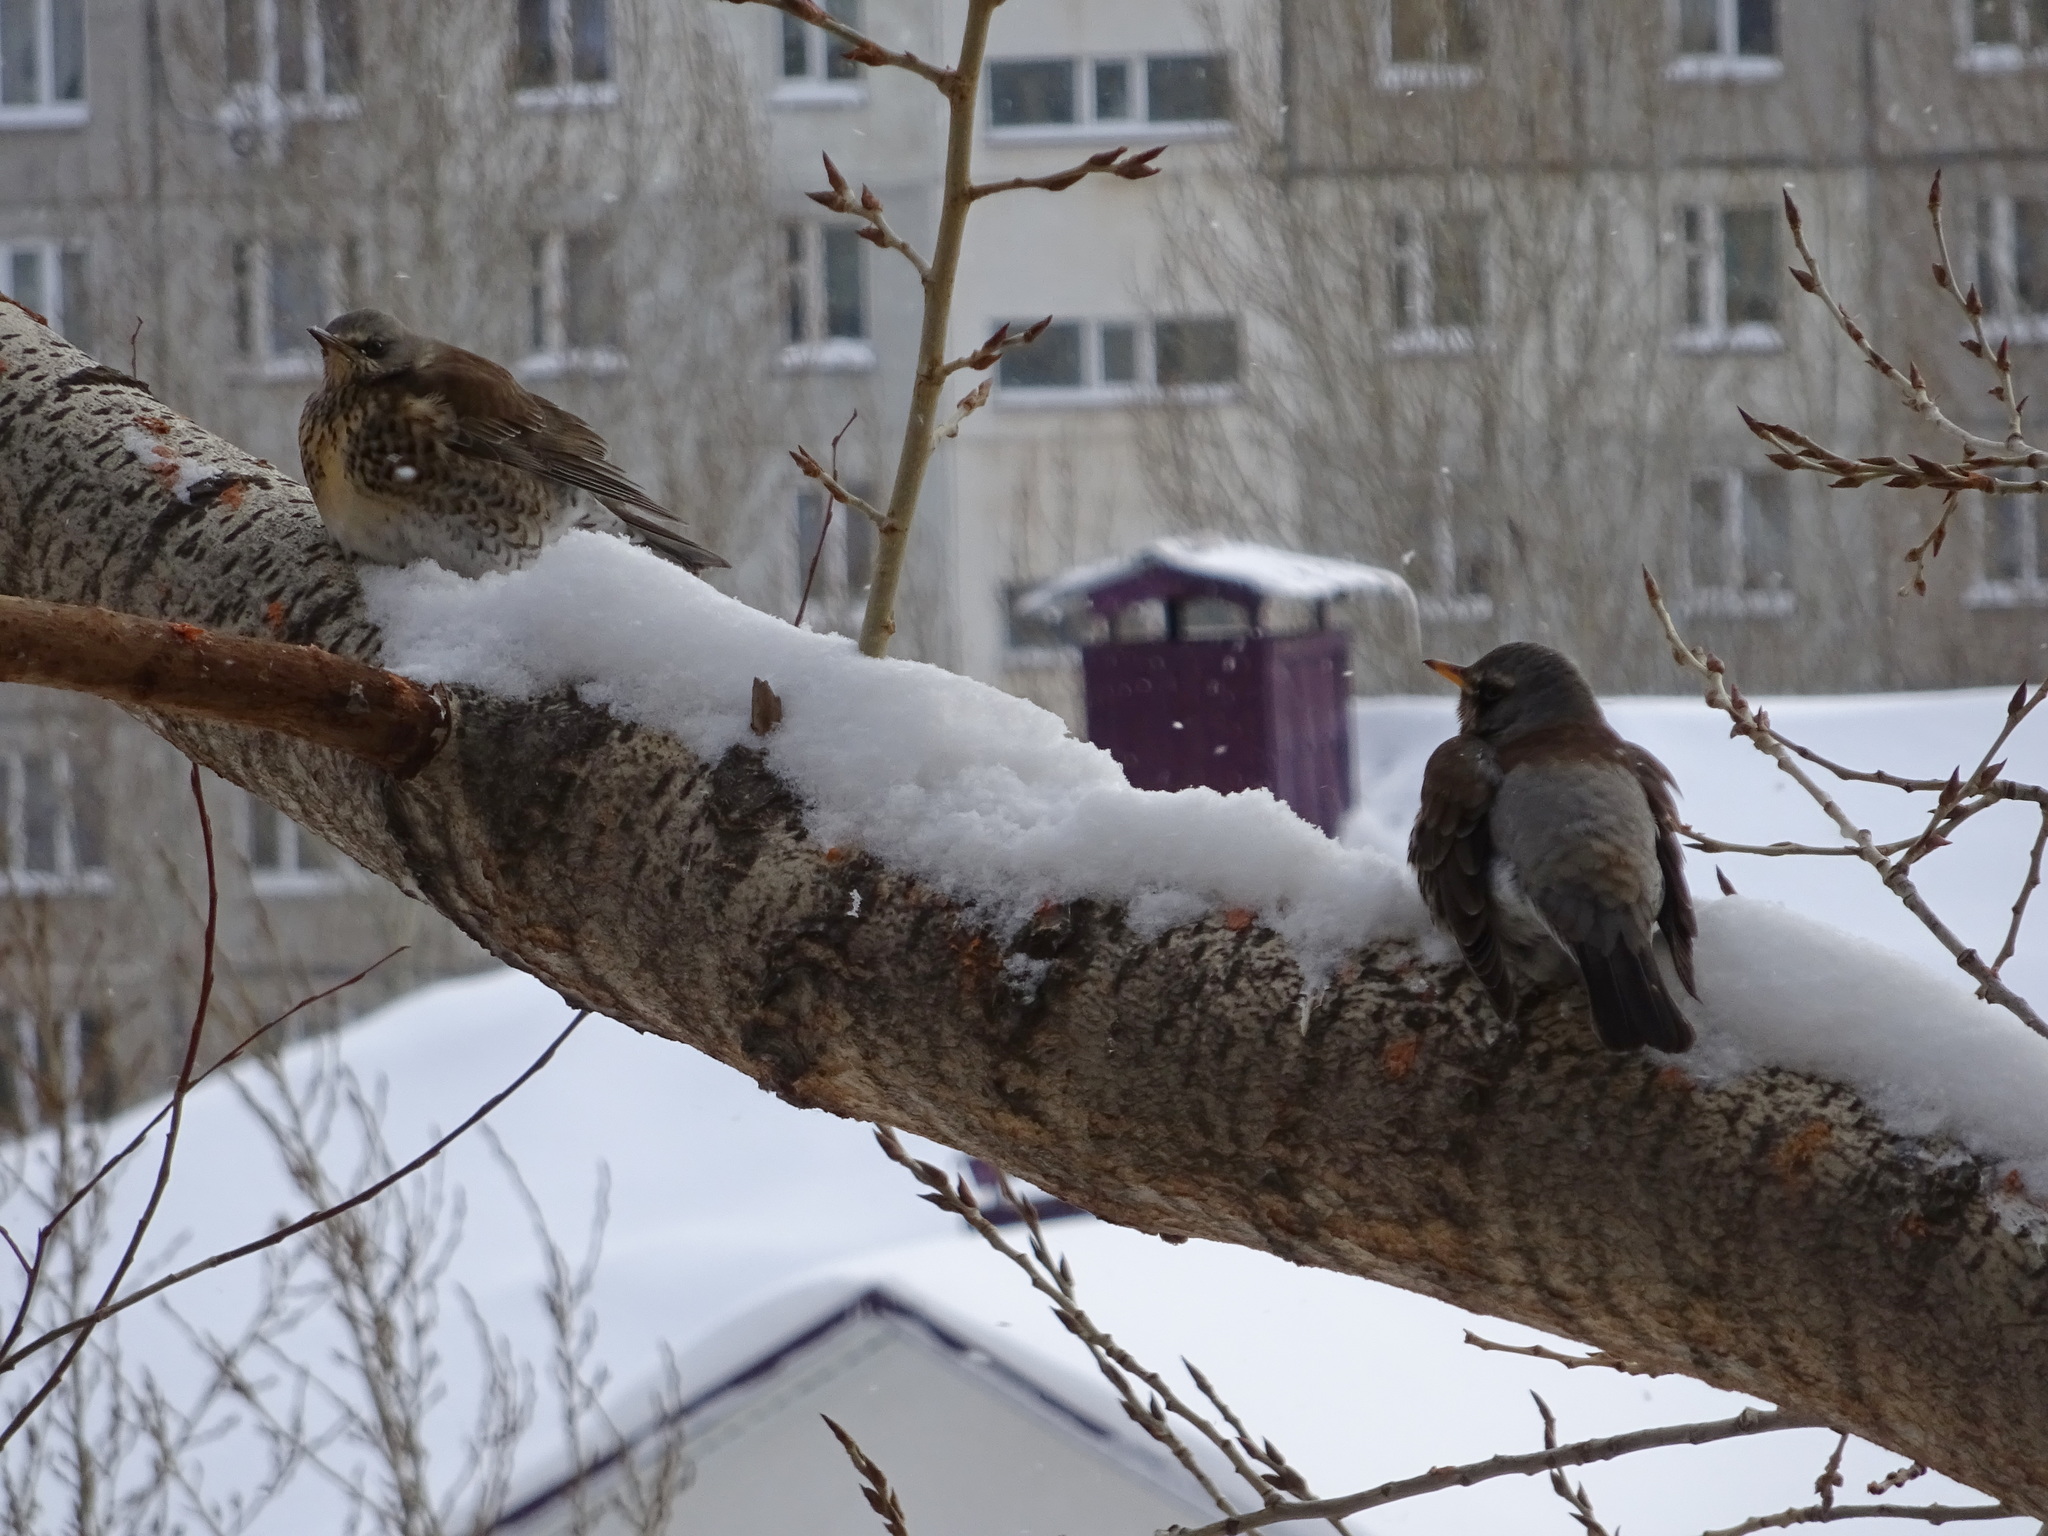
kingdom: Animalia
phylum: Chordata
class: Aves
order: Passeriformes
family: Turdidae
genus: Turdus
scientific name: Turdus pilaris
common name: Fieldfare
